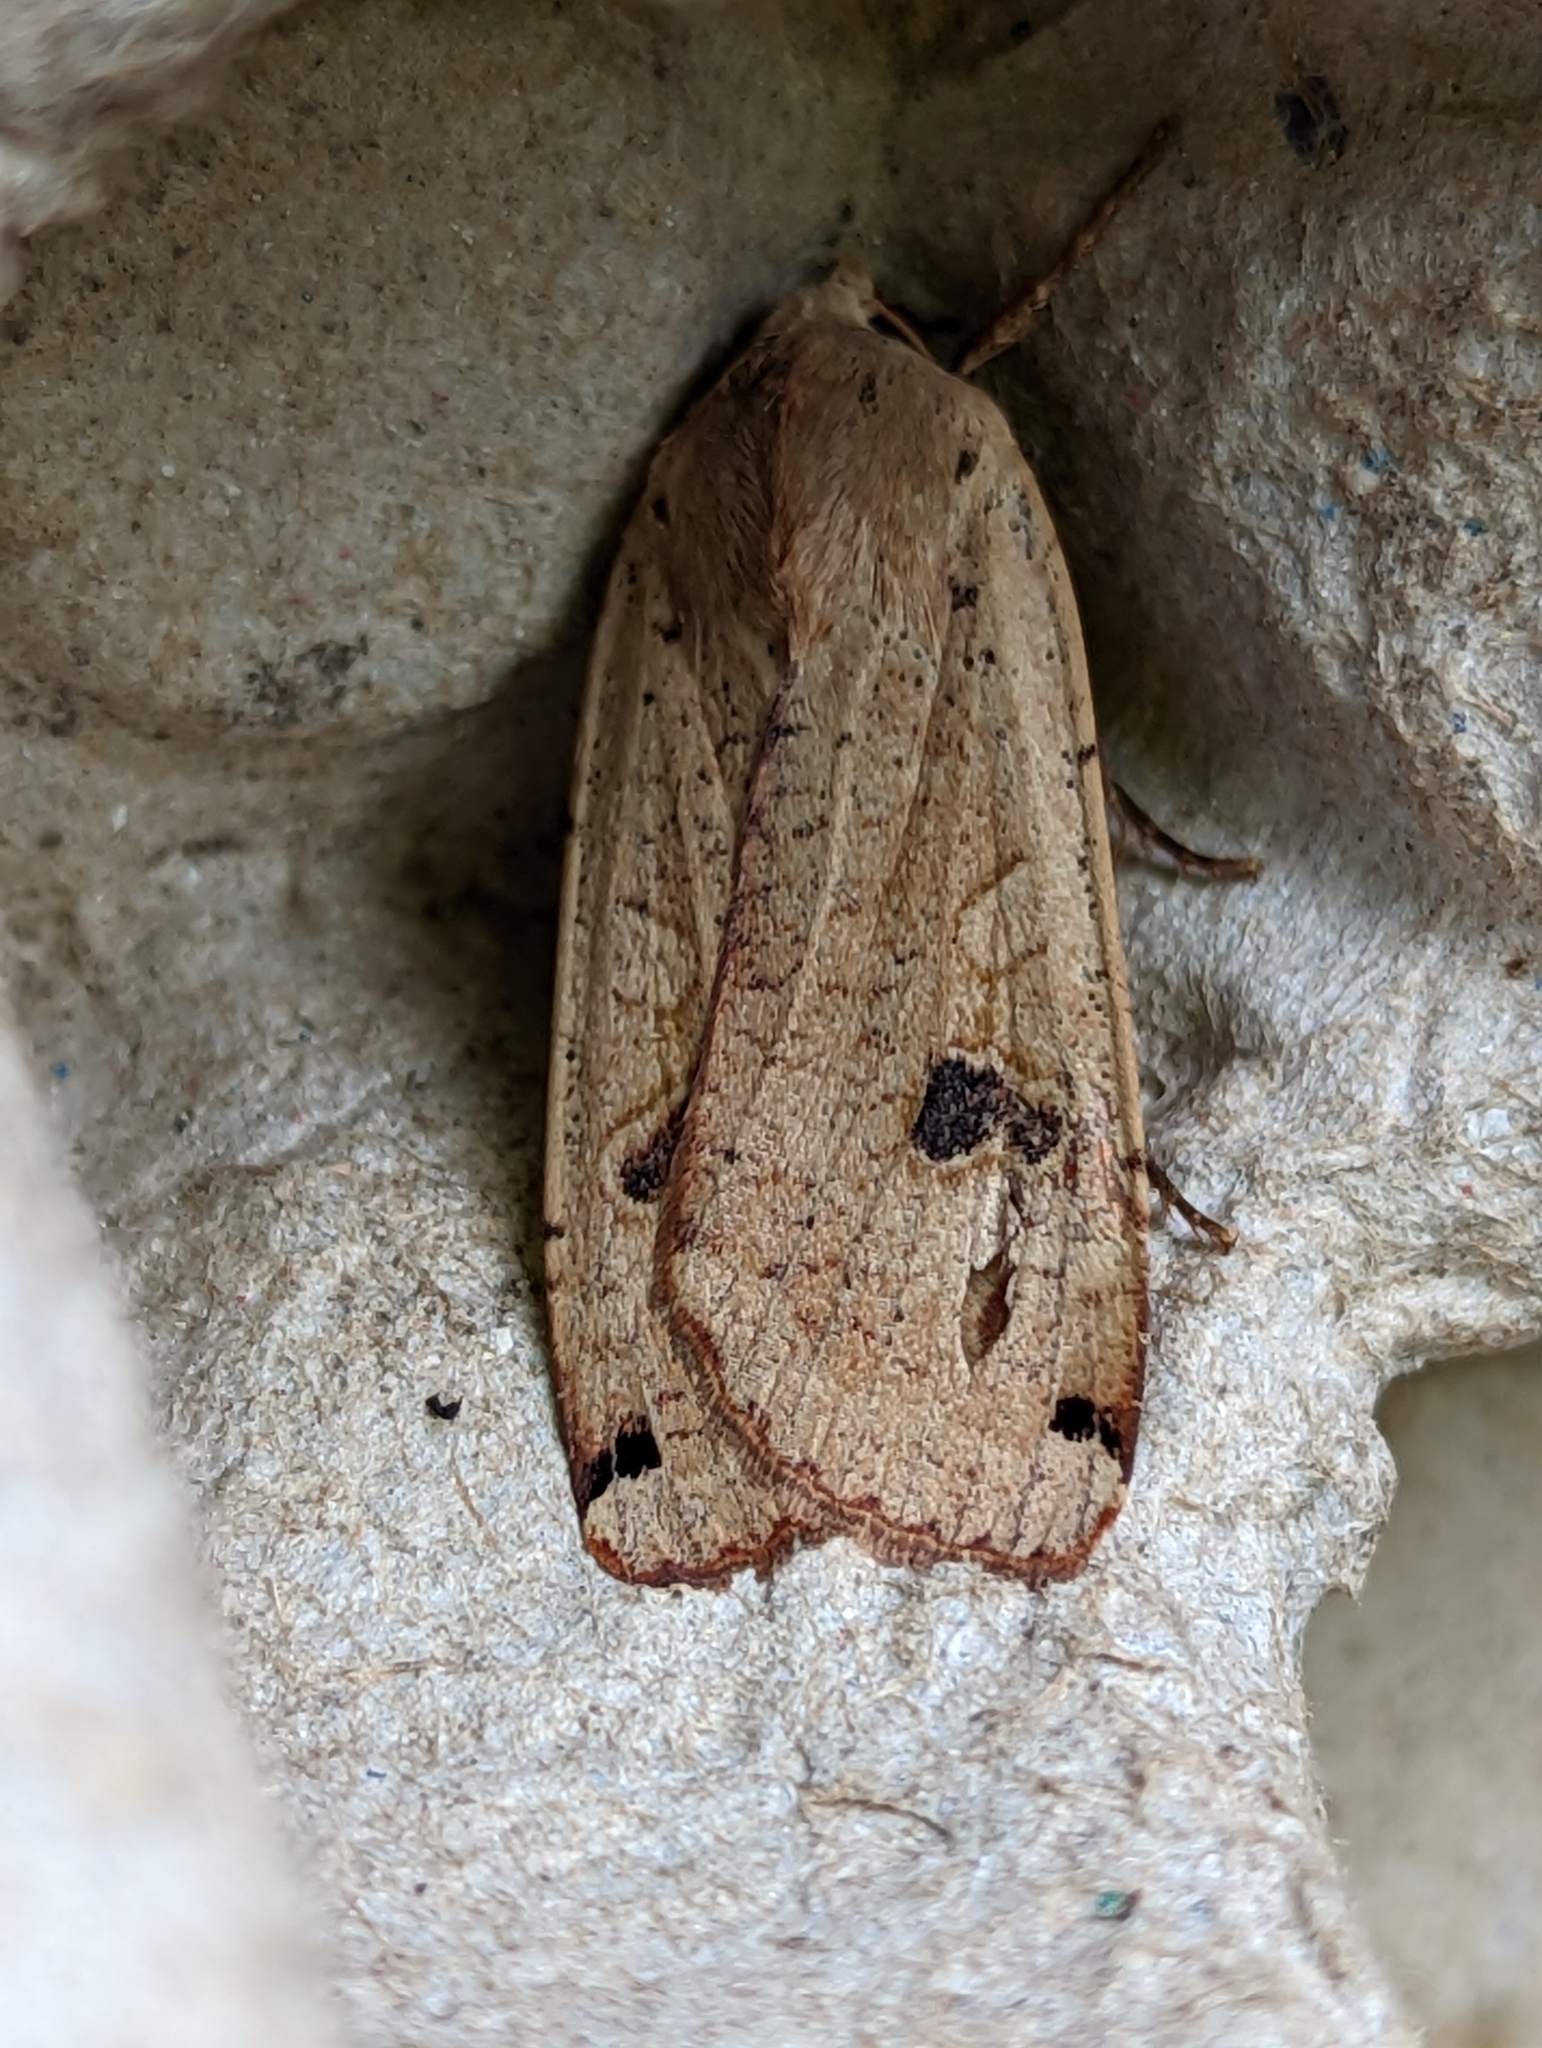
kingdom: Animalia
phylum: Arthropoda
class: Insecta
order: Lepidoptera
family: Noctuidae
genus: Noctua
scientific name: Noctua pronuba
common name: Large yellow underwing
